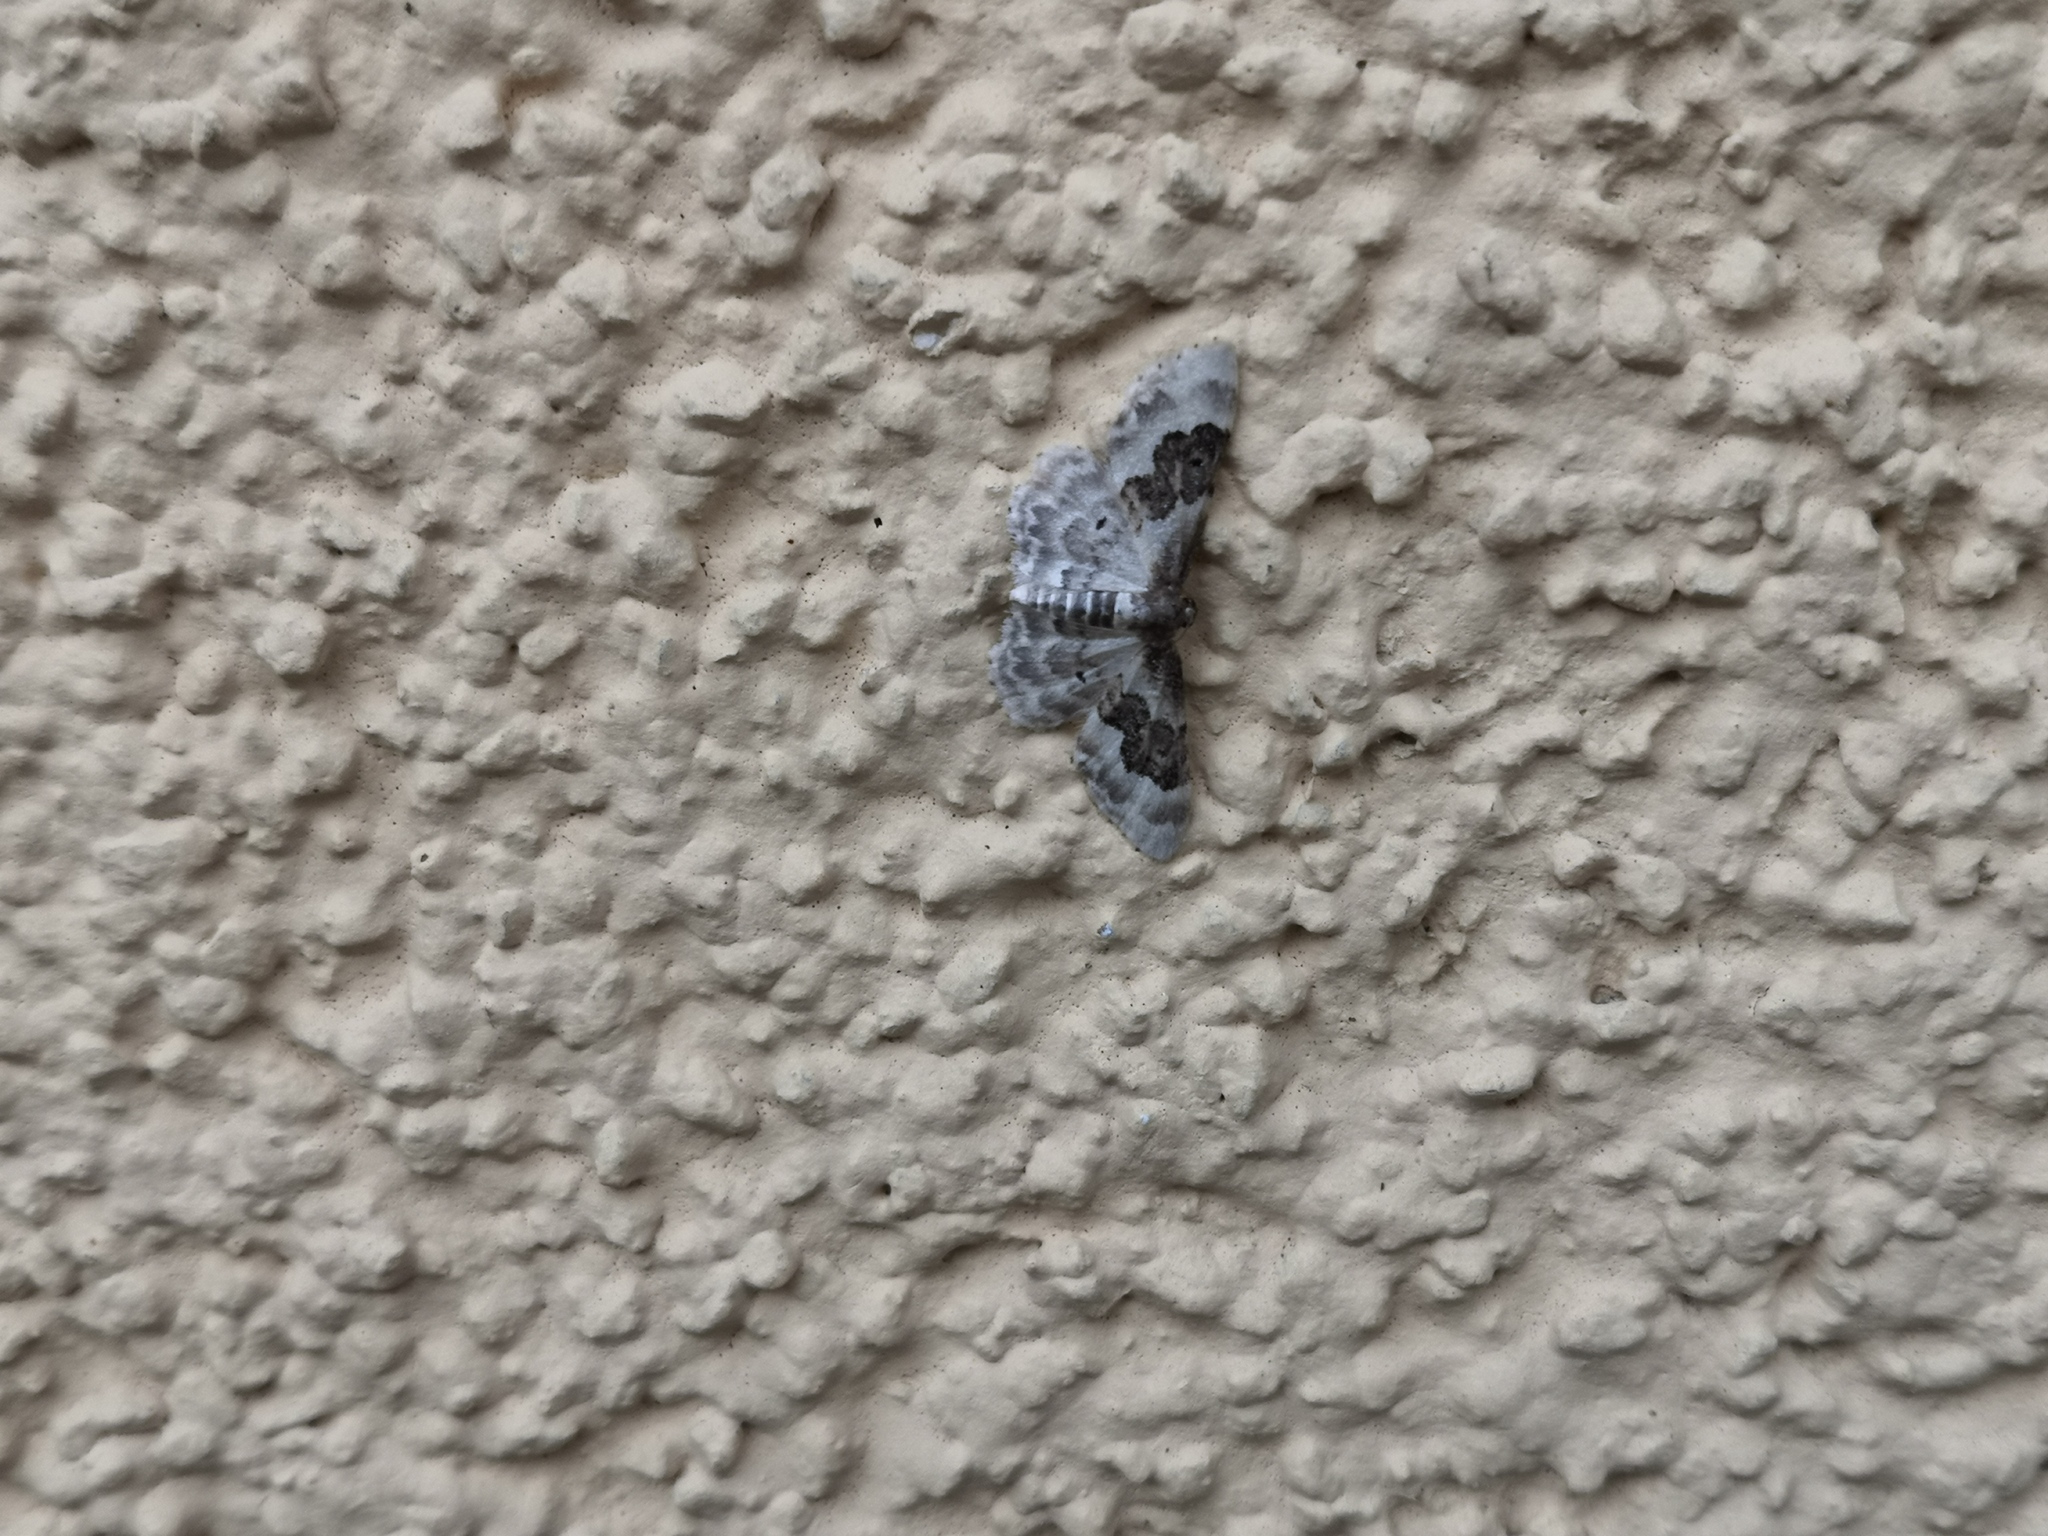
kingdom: Animalia
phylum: Arthropoda
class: Insecta
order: Lepidoptera
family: Geometridae
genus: Idaea
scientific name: Idaea rusticata
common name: Least carpet
